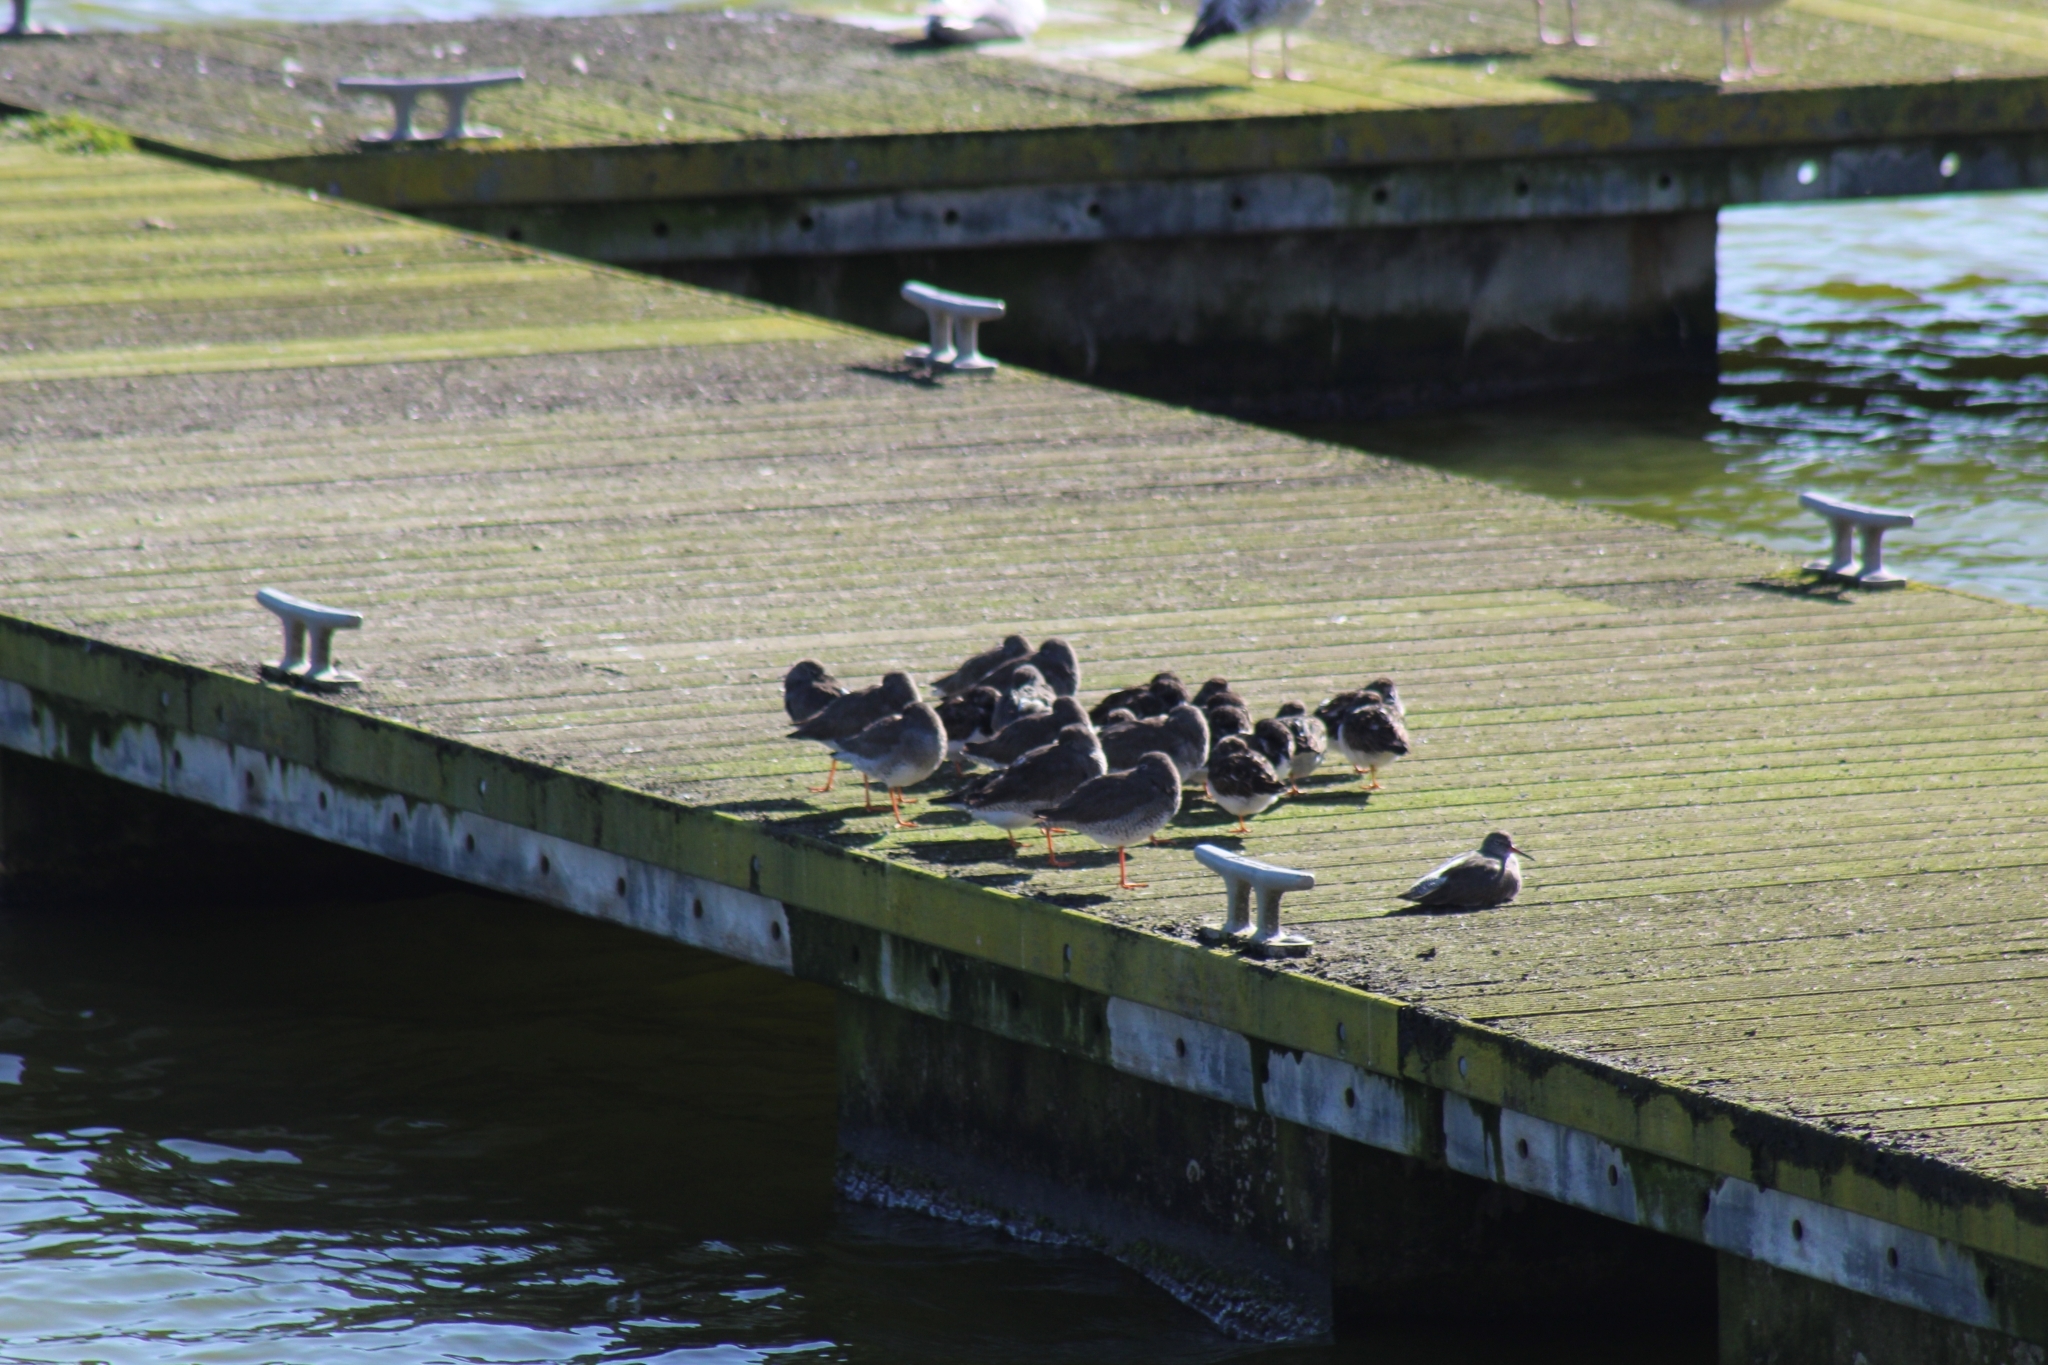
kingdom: Animalia
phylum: Chordata
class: Aves
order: Charadriiformes
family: Scolopacidae
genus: Tringa
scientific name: Tringa totanus
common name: Common redshank
